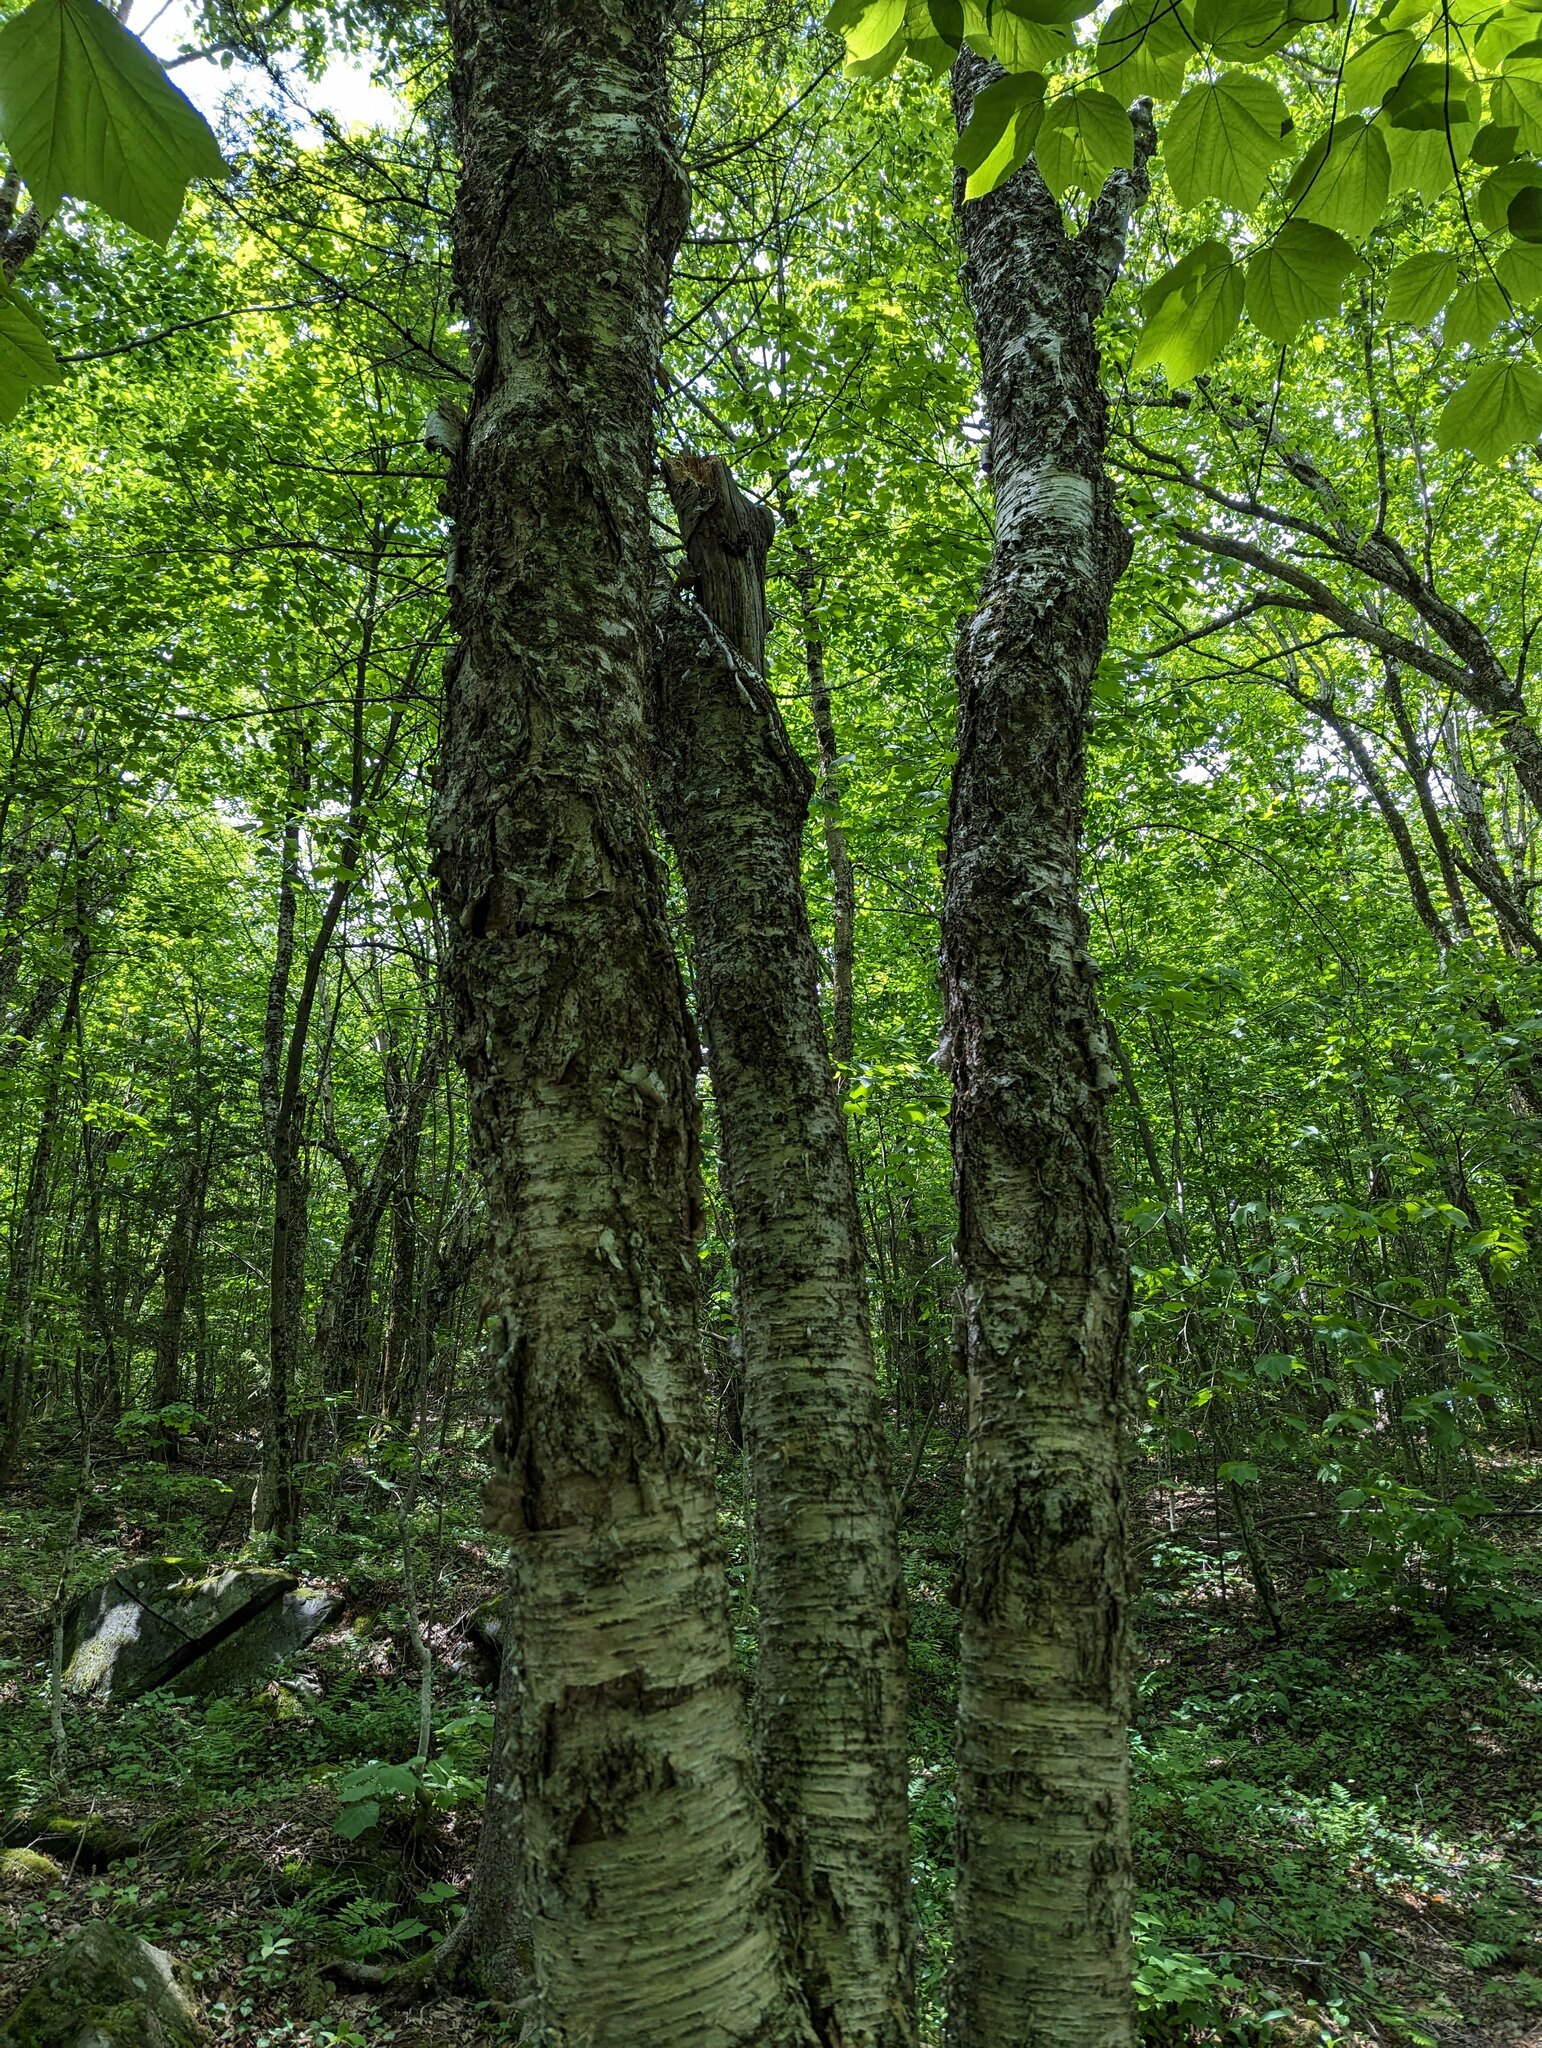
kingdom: Plantae
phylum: Tracheophyta
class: Magnoliopsida
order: Fagales
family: Betulaceae
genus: Betula
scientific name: Betula alleghaniensis
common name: Yellow birch
